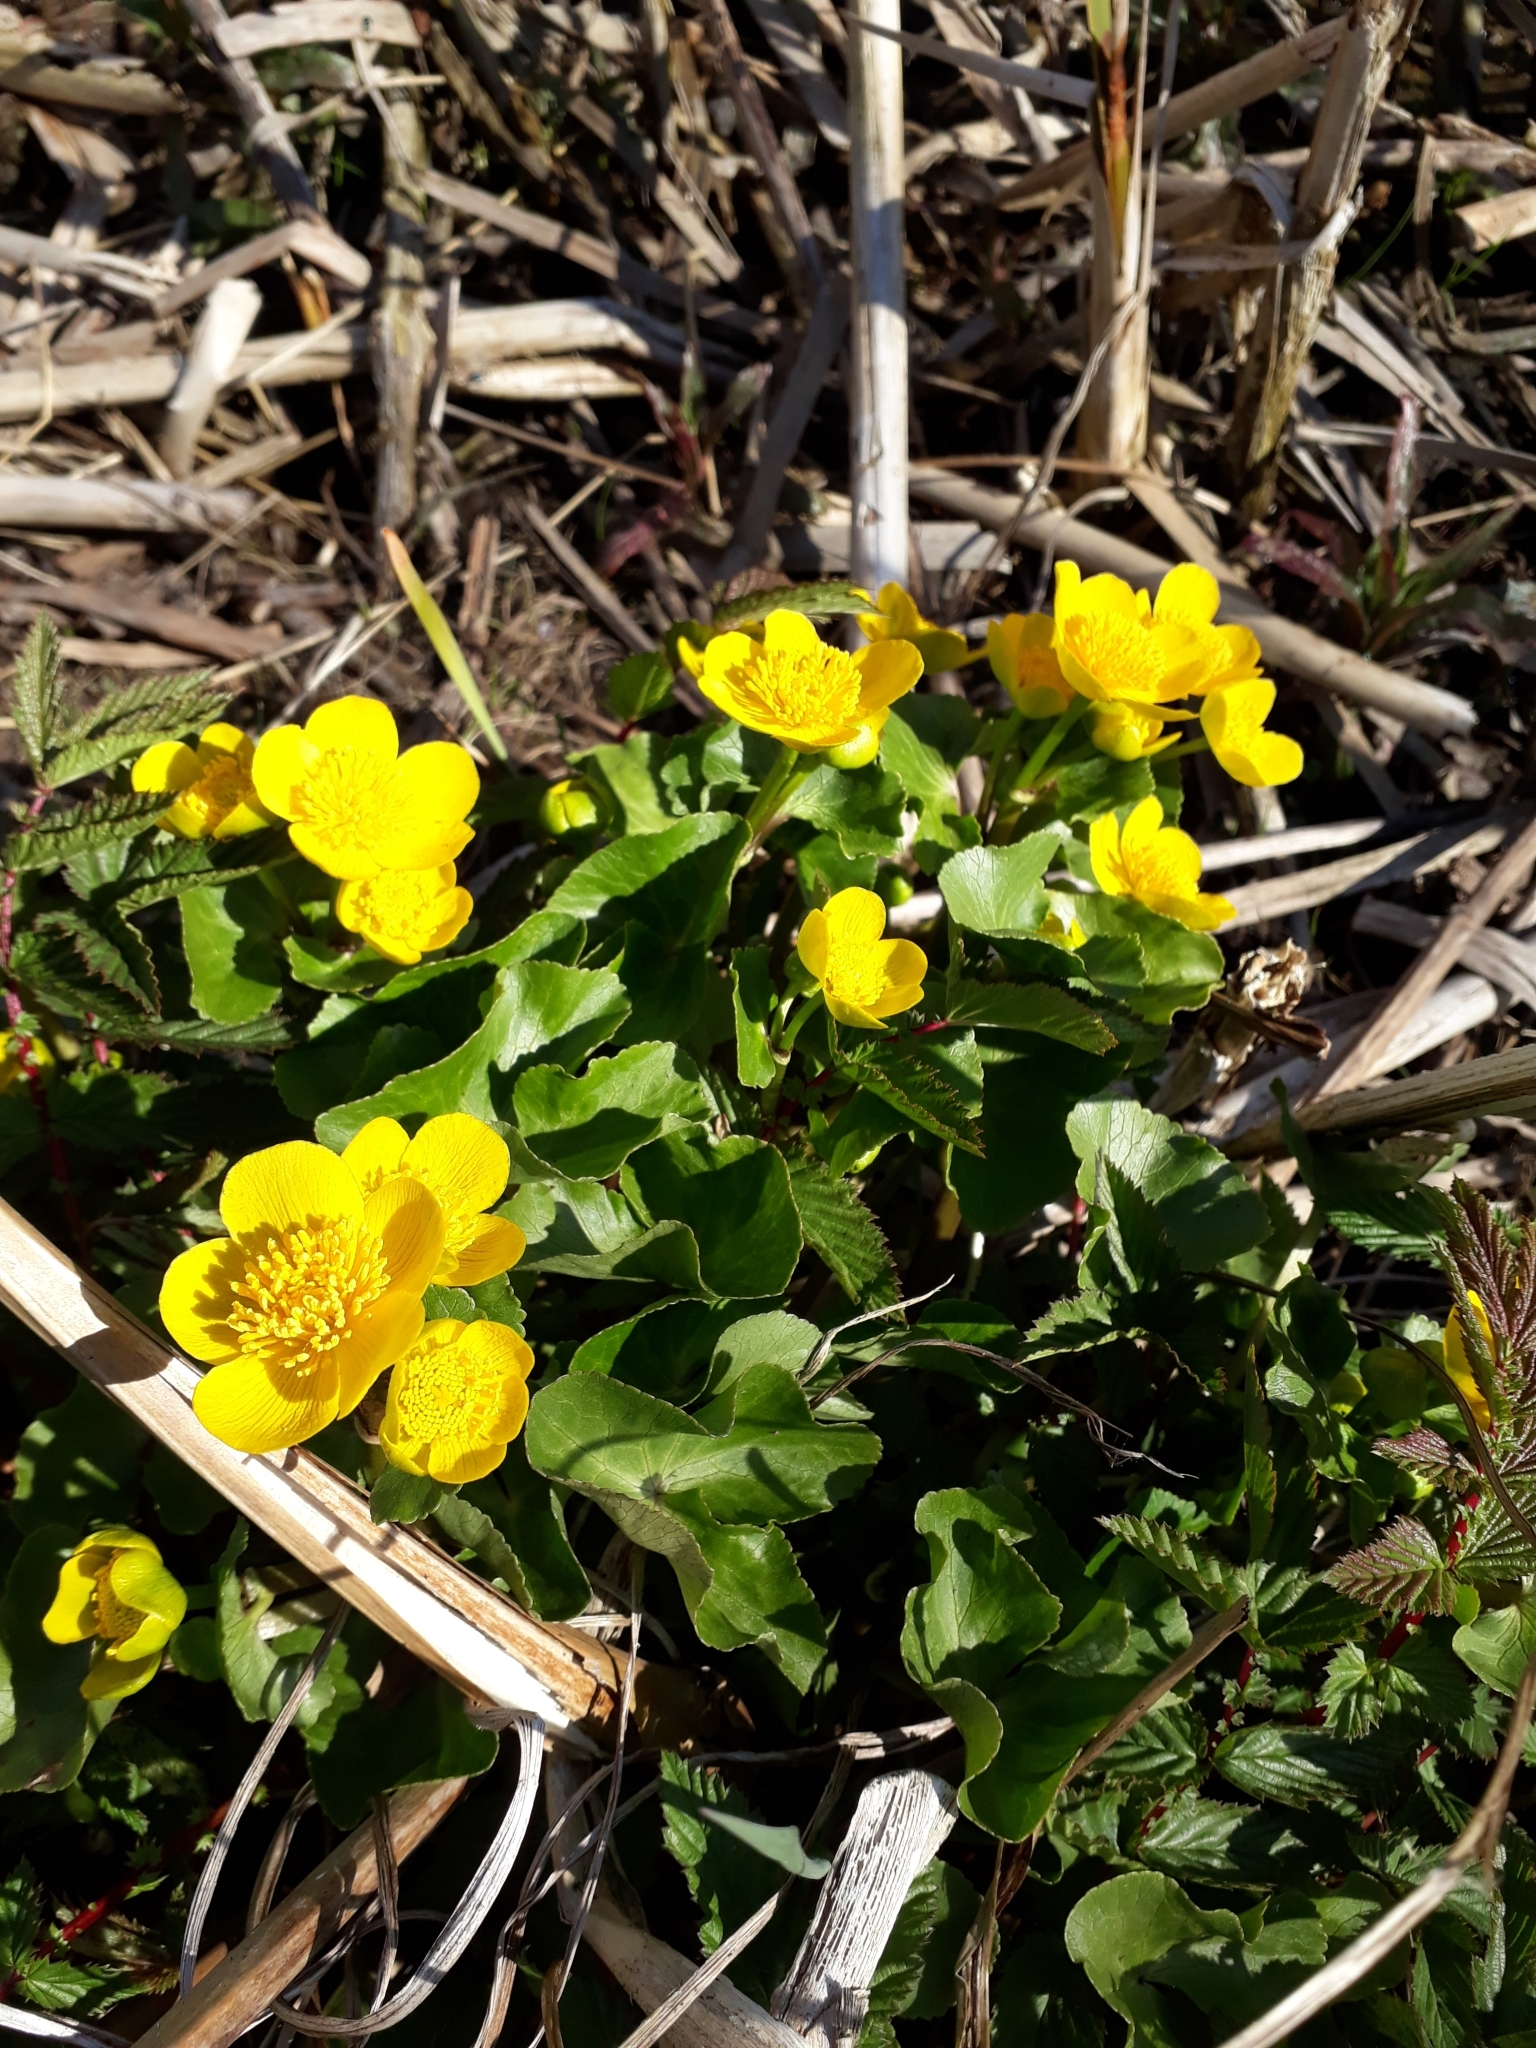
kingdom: Plantae
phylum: Tracheophyta
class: Magnoliopsida
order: Ranunculales
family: Ranunculaceae
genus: Caltha
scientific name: Caltha palustris
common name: Marsh marigold
